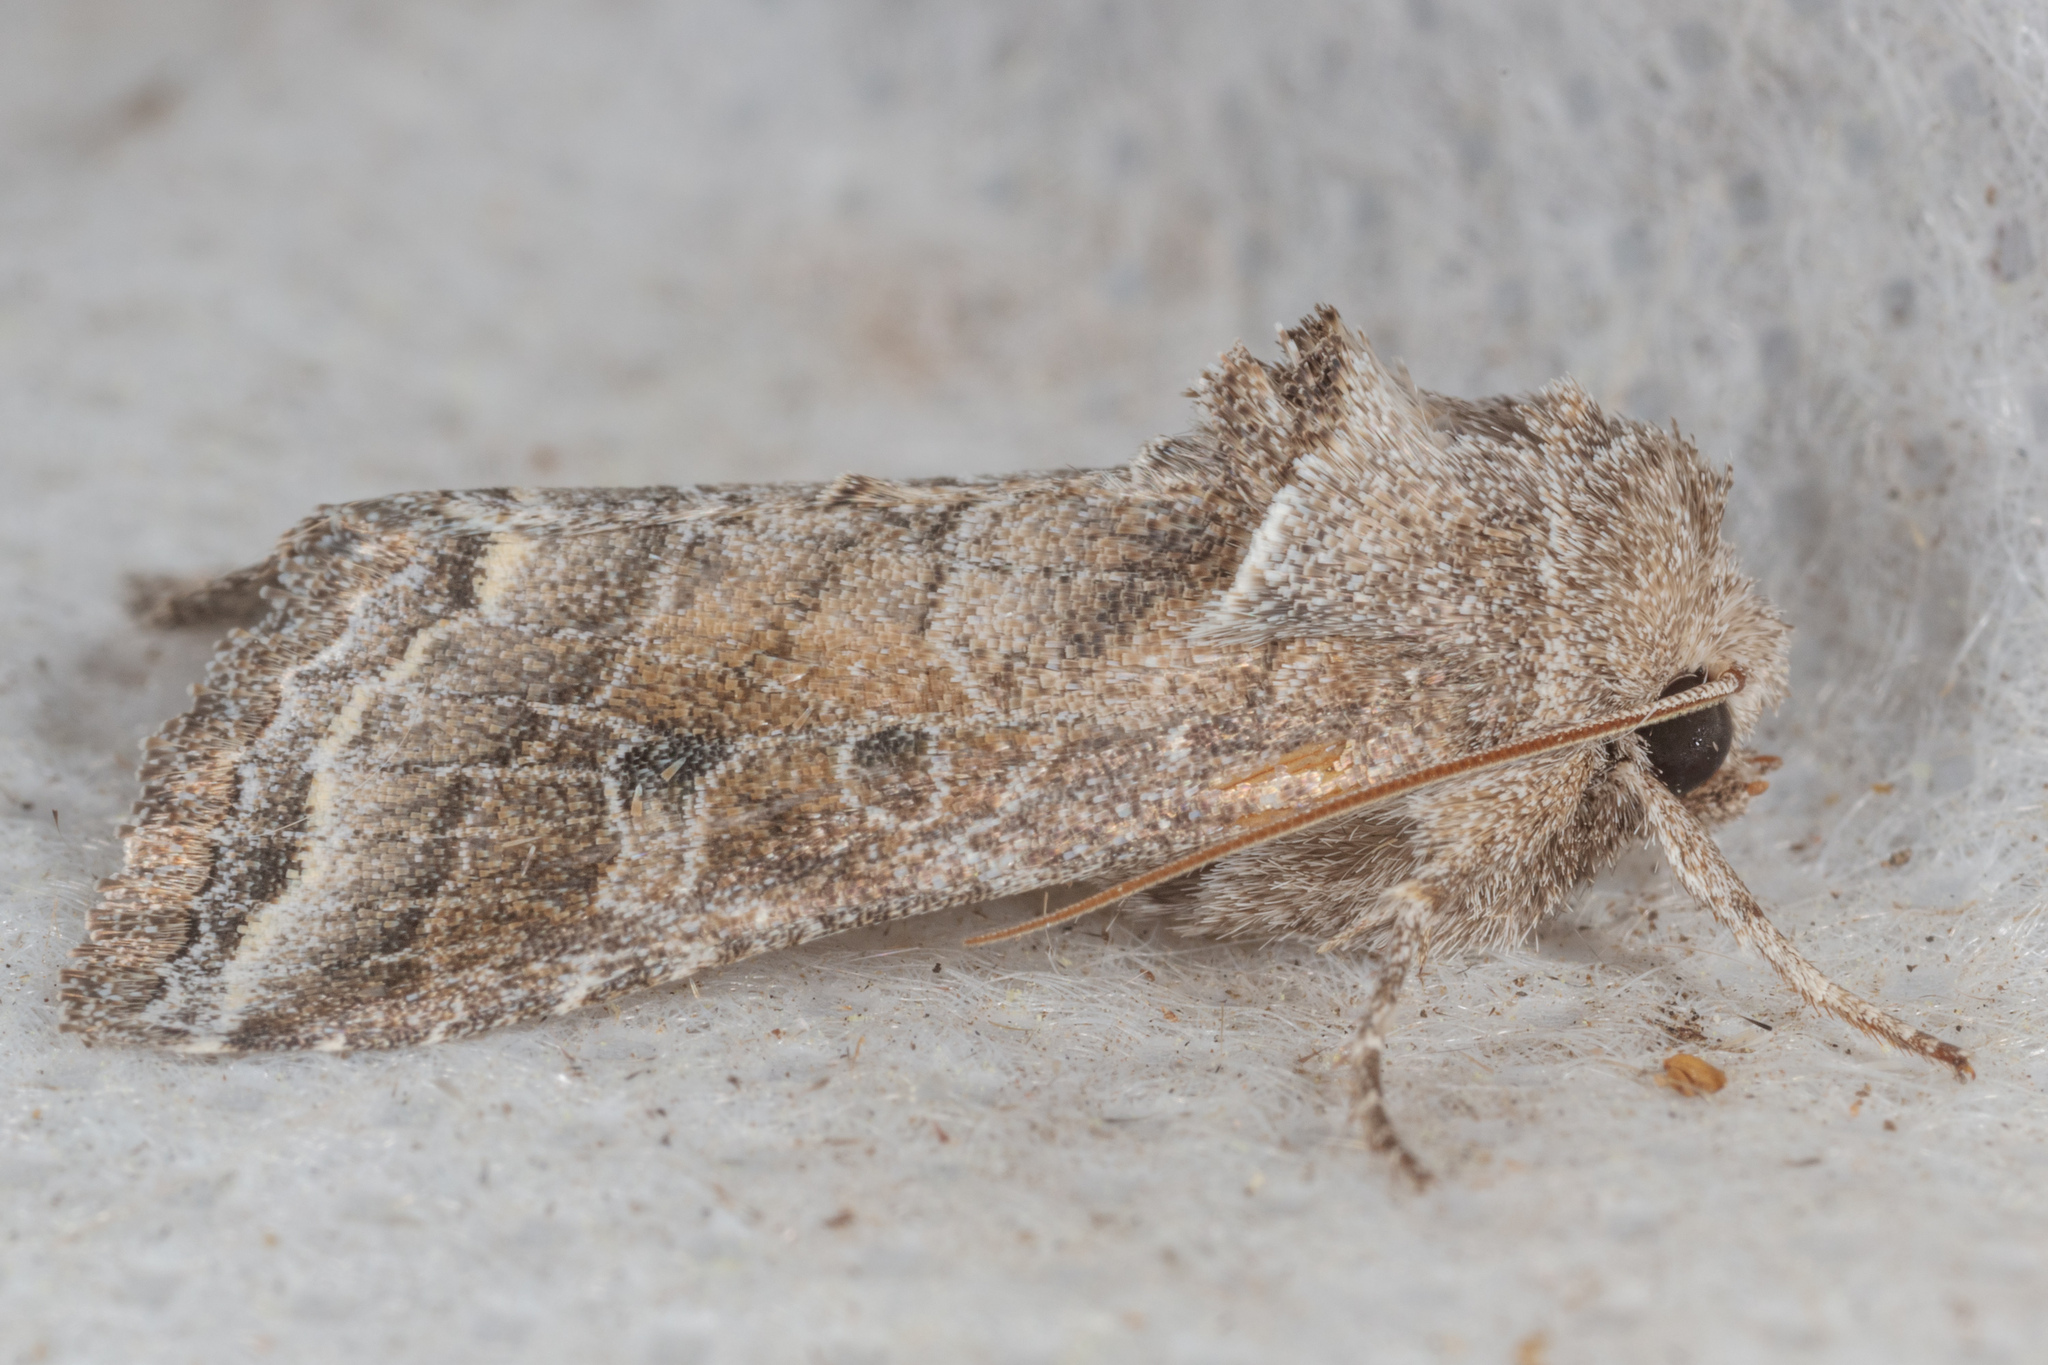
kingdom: Animalia
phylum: Arthropoda
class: Insecta
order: Lepidoptera
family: Noctuidae
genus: Lacinipolia
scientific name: Lacinipolia erecta
